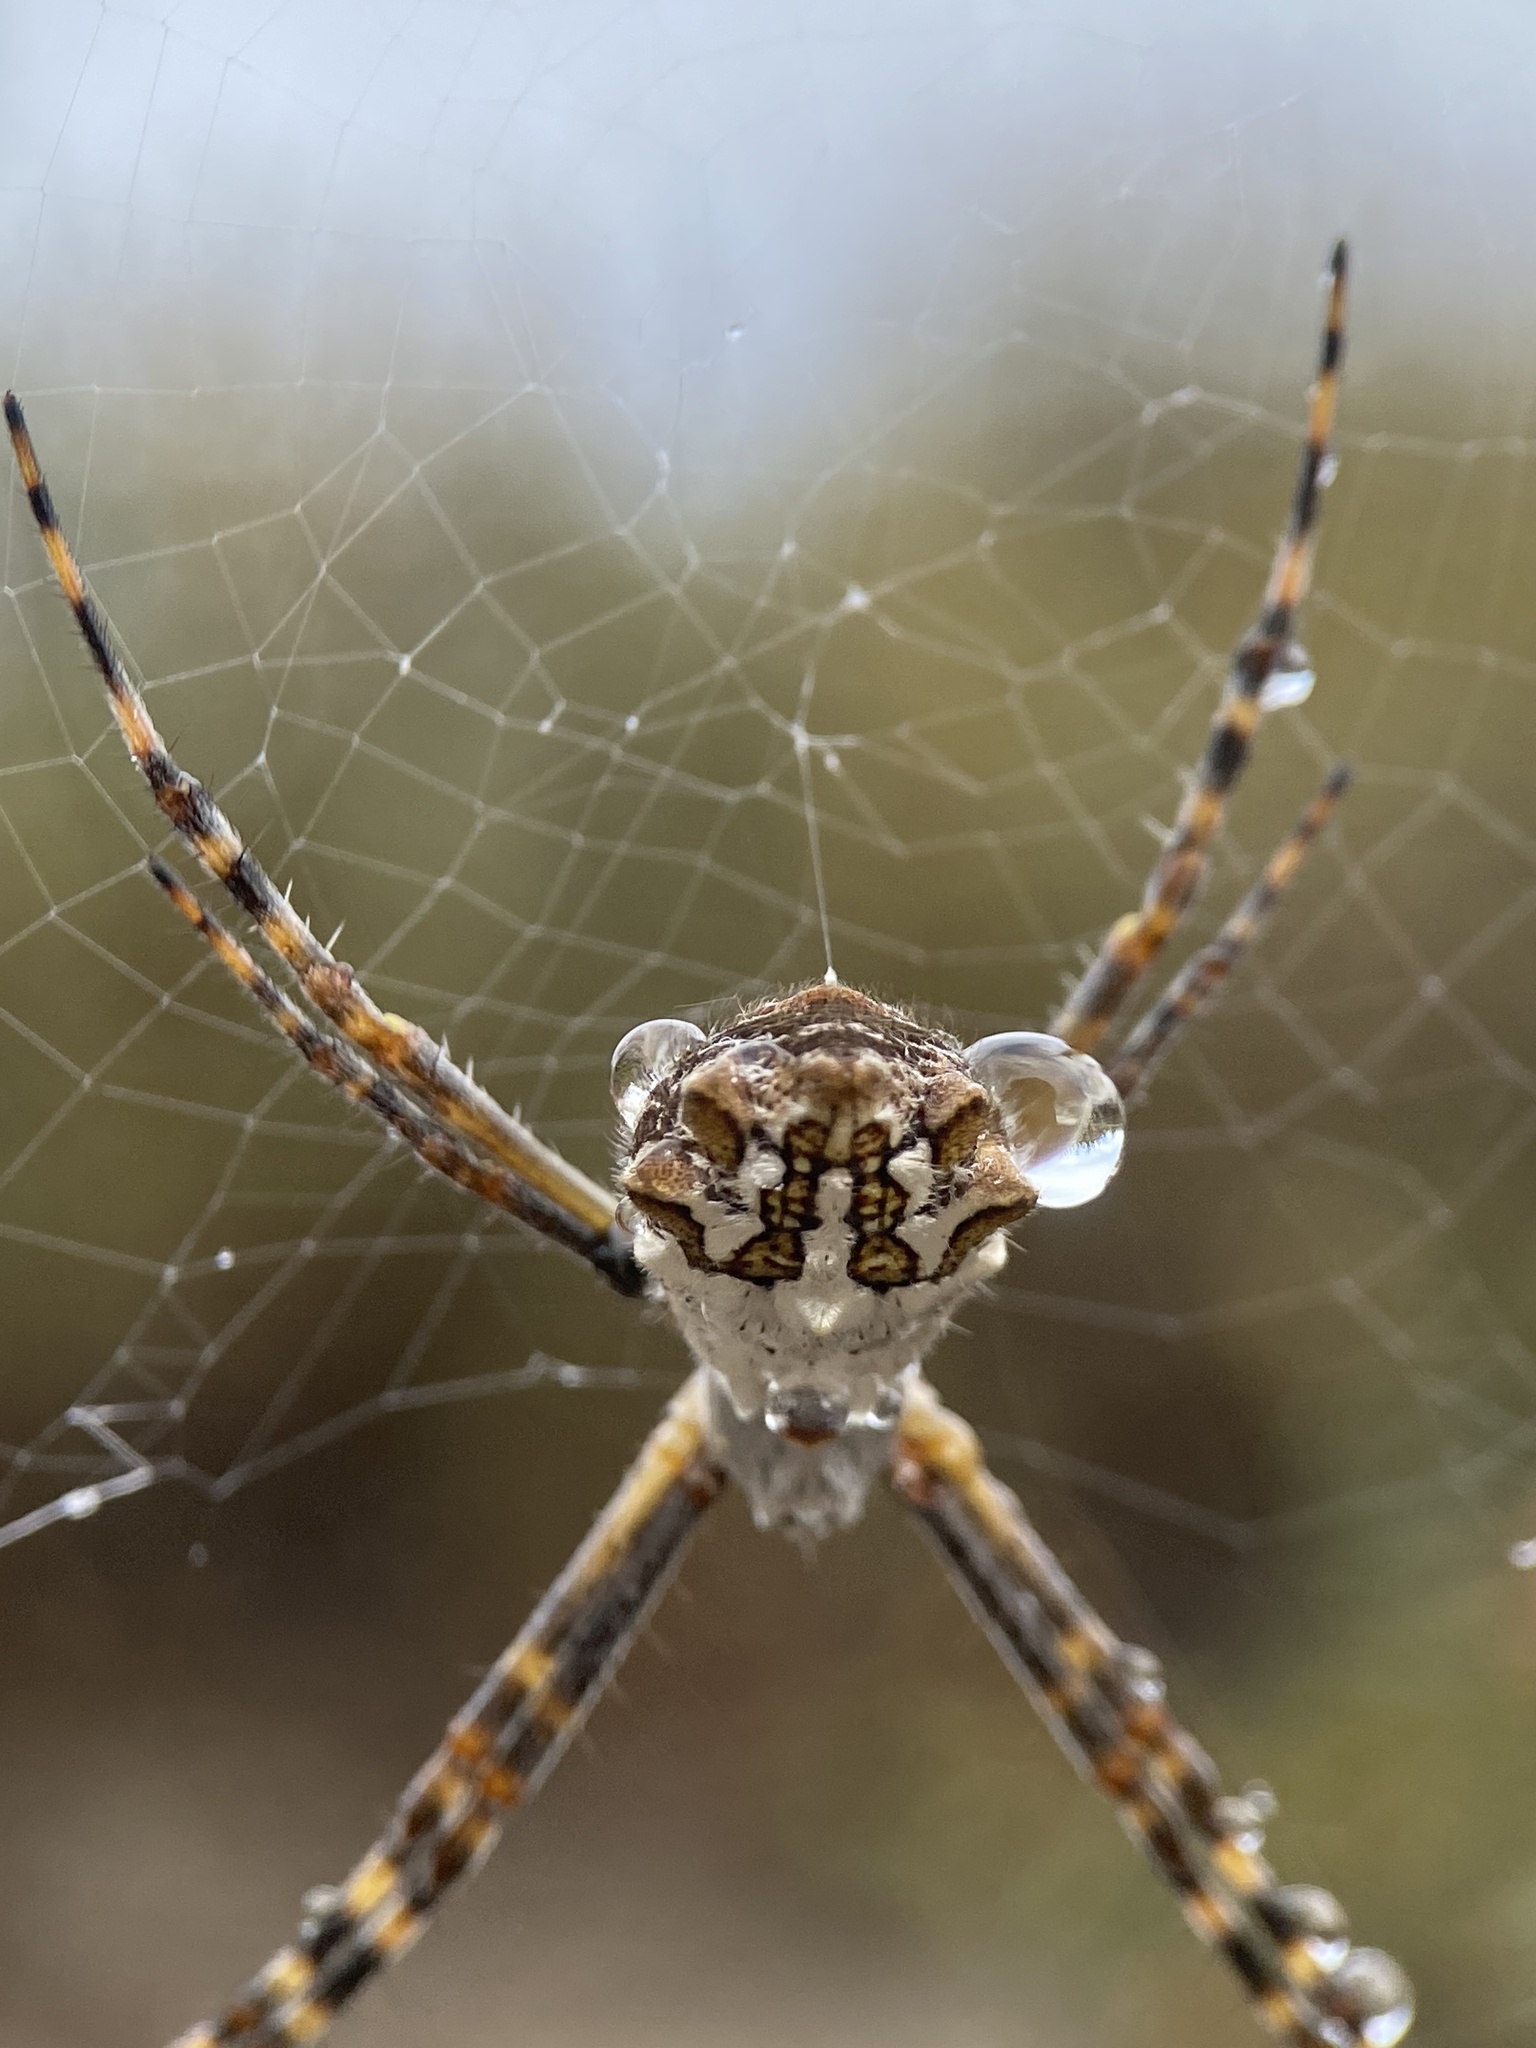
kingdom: Animalia
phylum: Arthropoda
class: Arachnida
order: Araneae
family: Araneidae
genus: Argiope
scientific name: Argiope argentata
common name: Orb weavers
